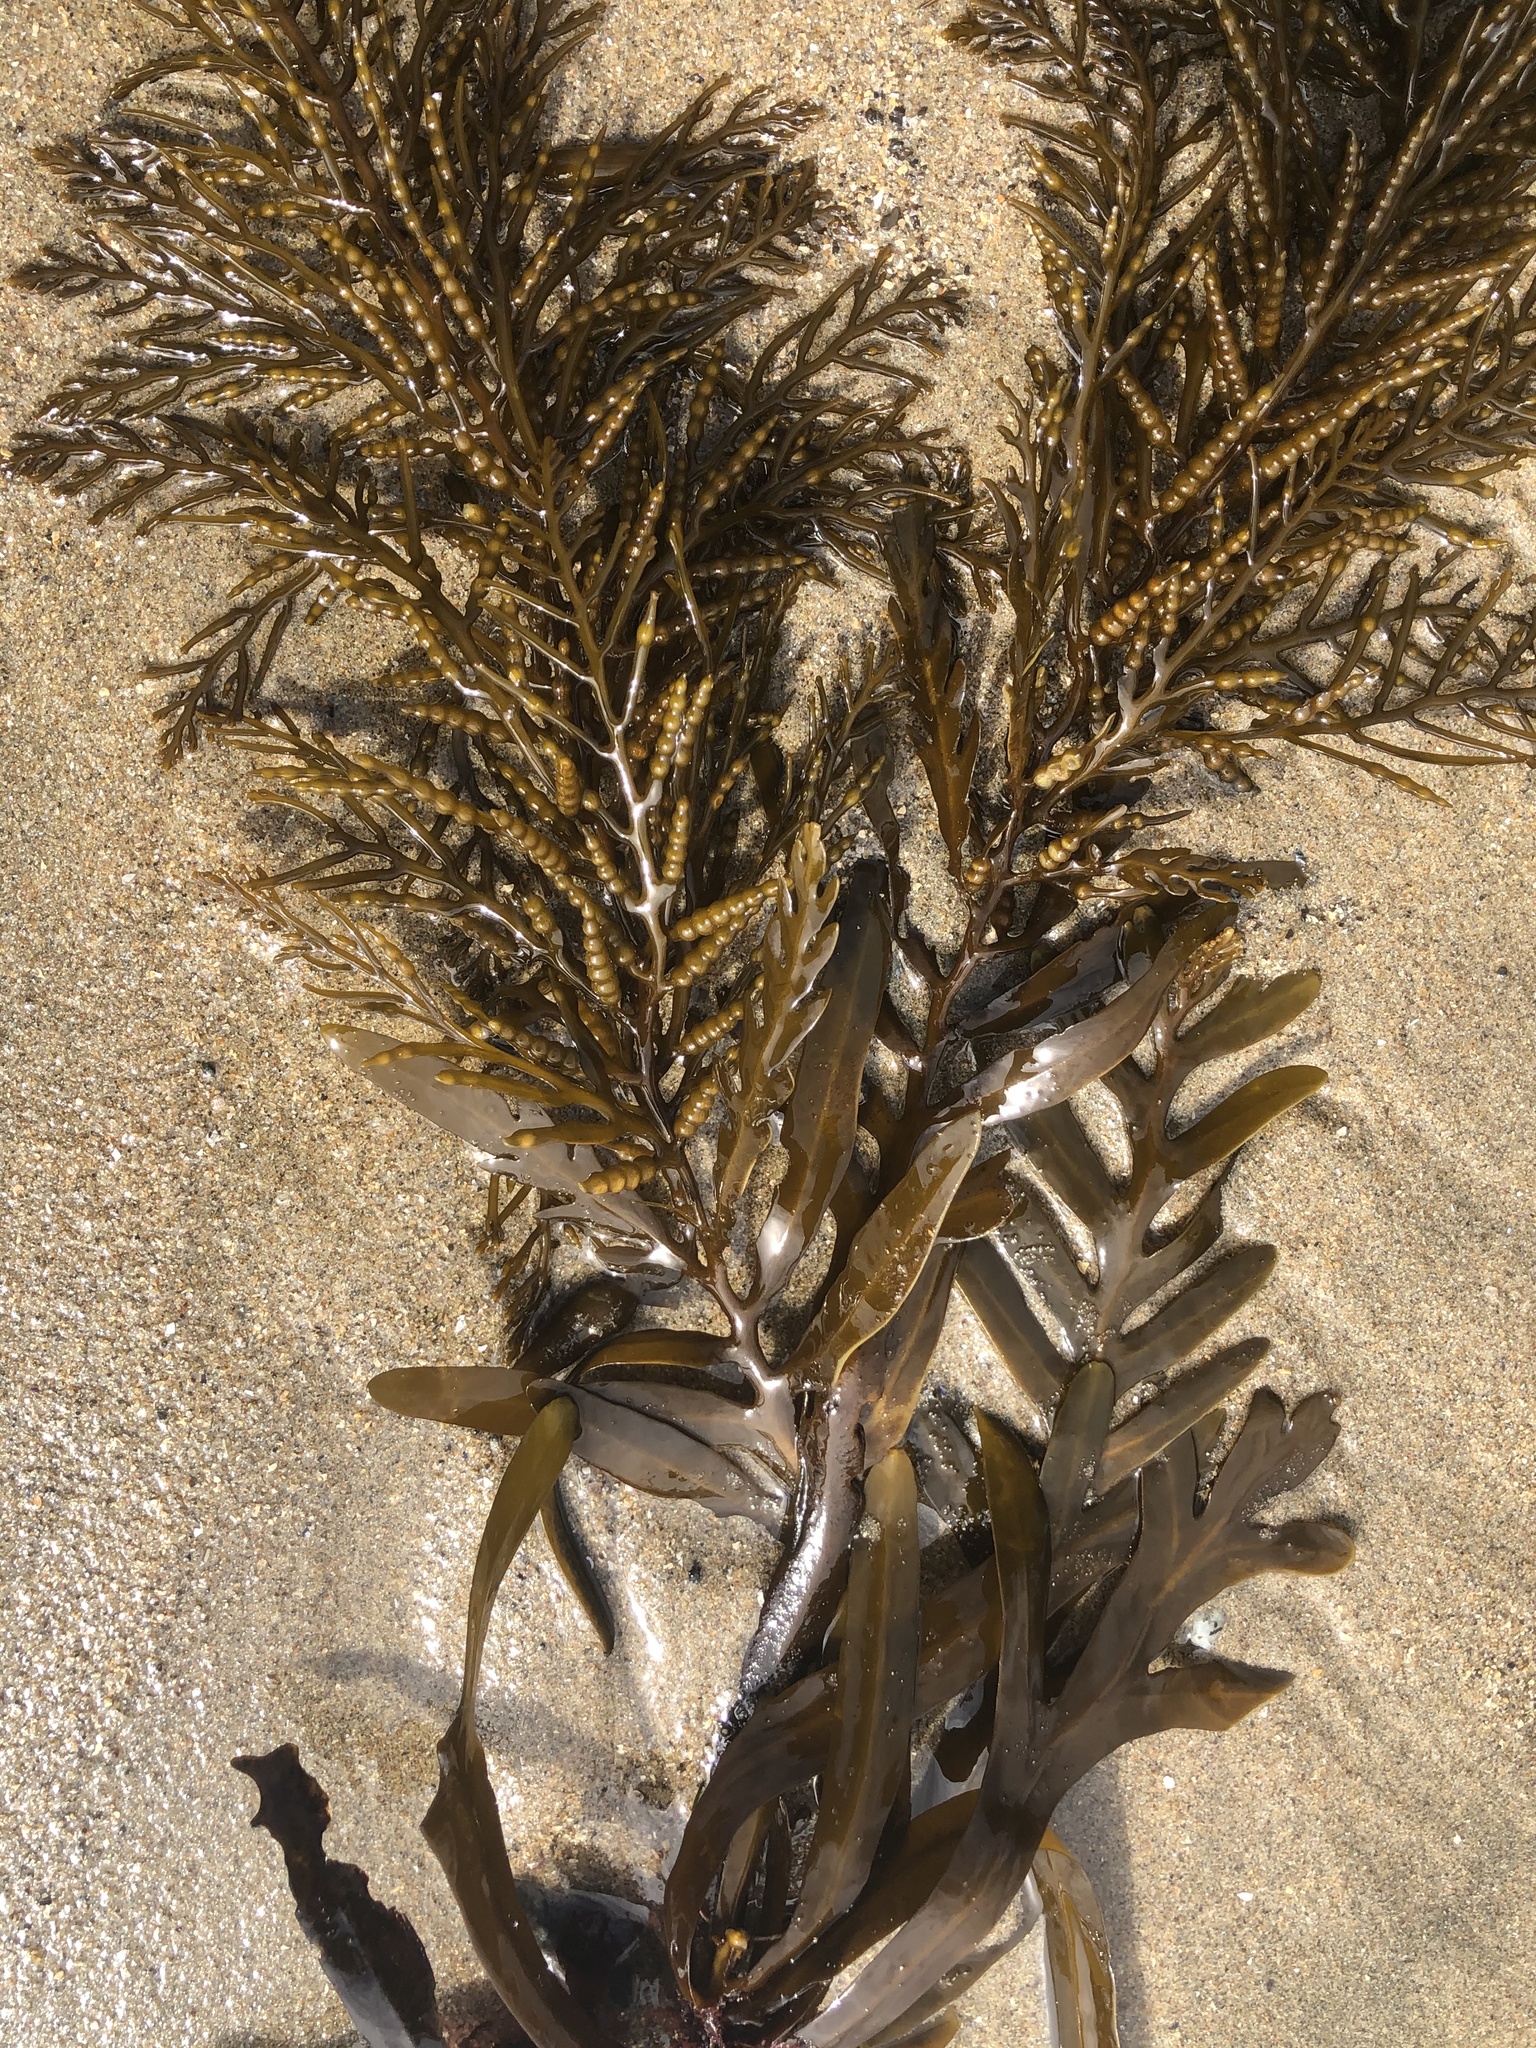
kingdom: Chromista
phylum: Ochrophyta
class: Phaeophyceae
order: Fucales
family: Sargassaceae
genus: Stephanocystis
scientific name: Stephanocystis
